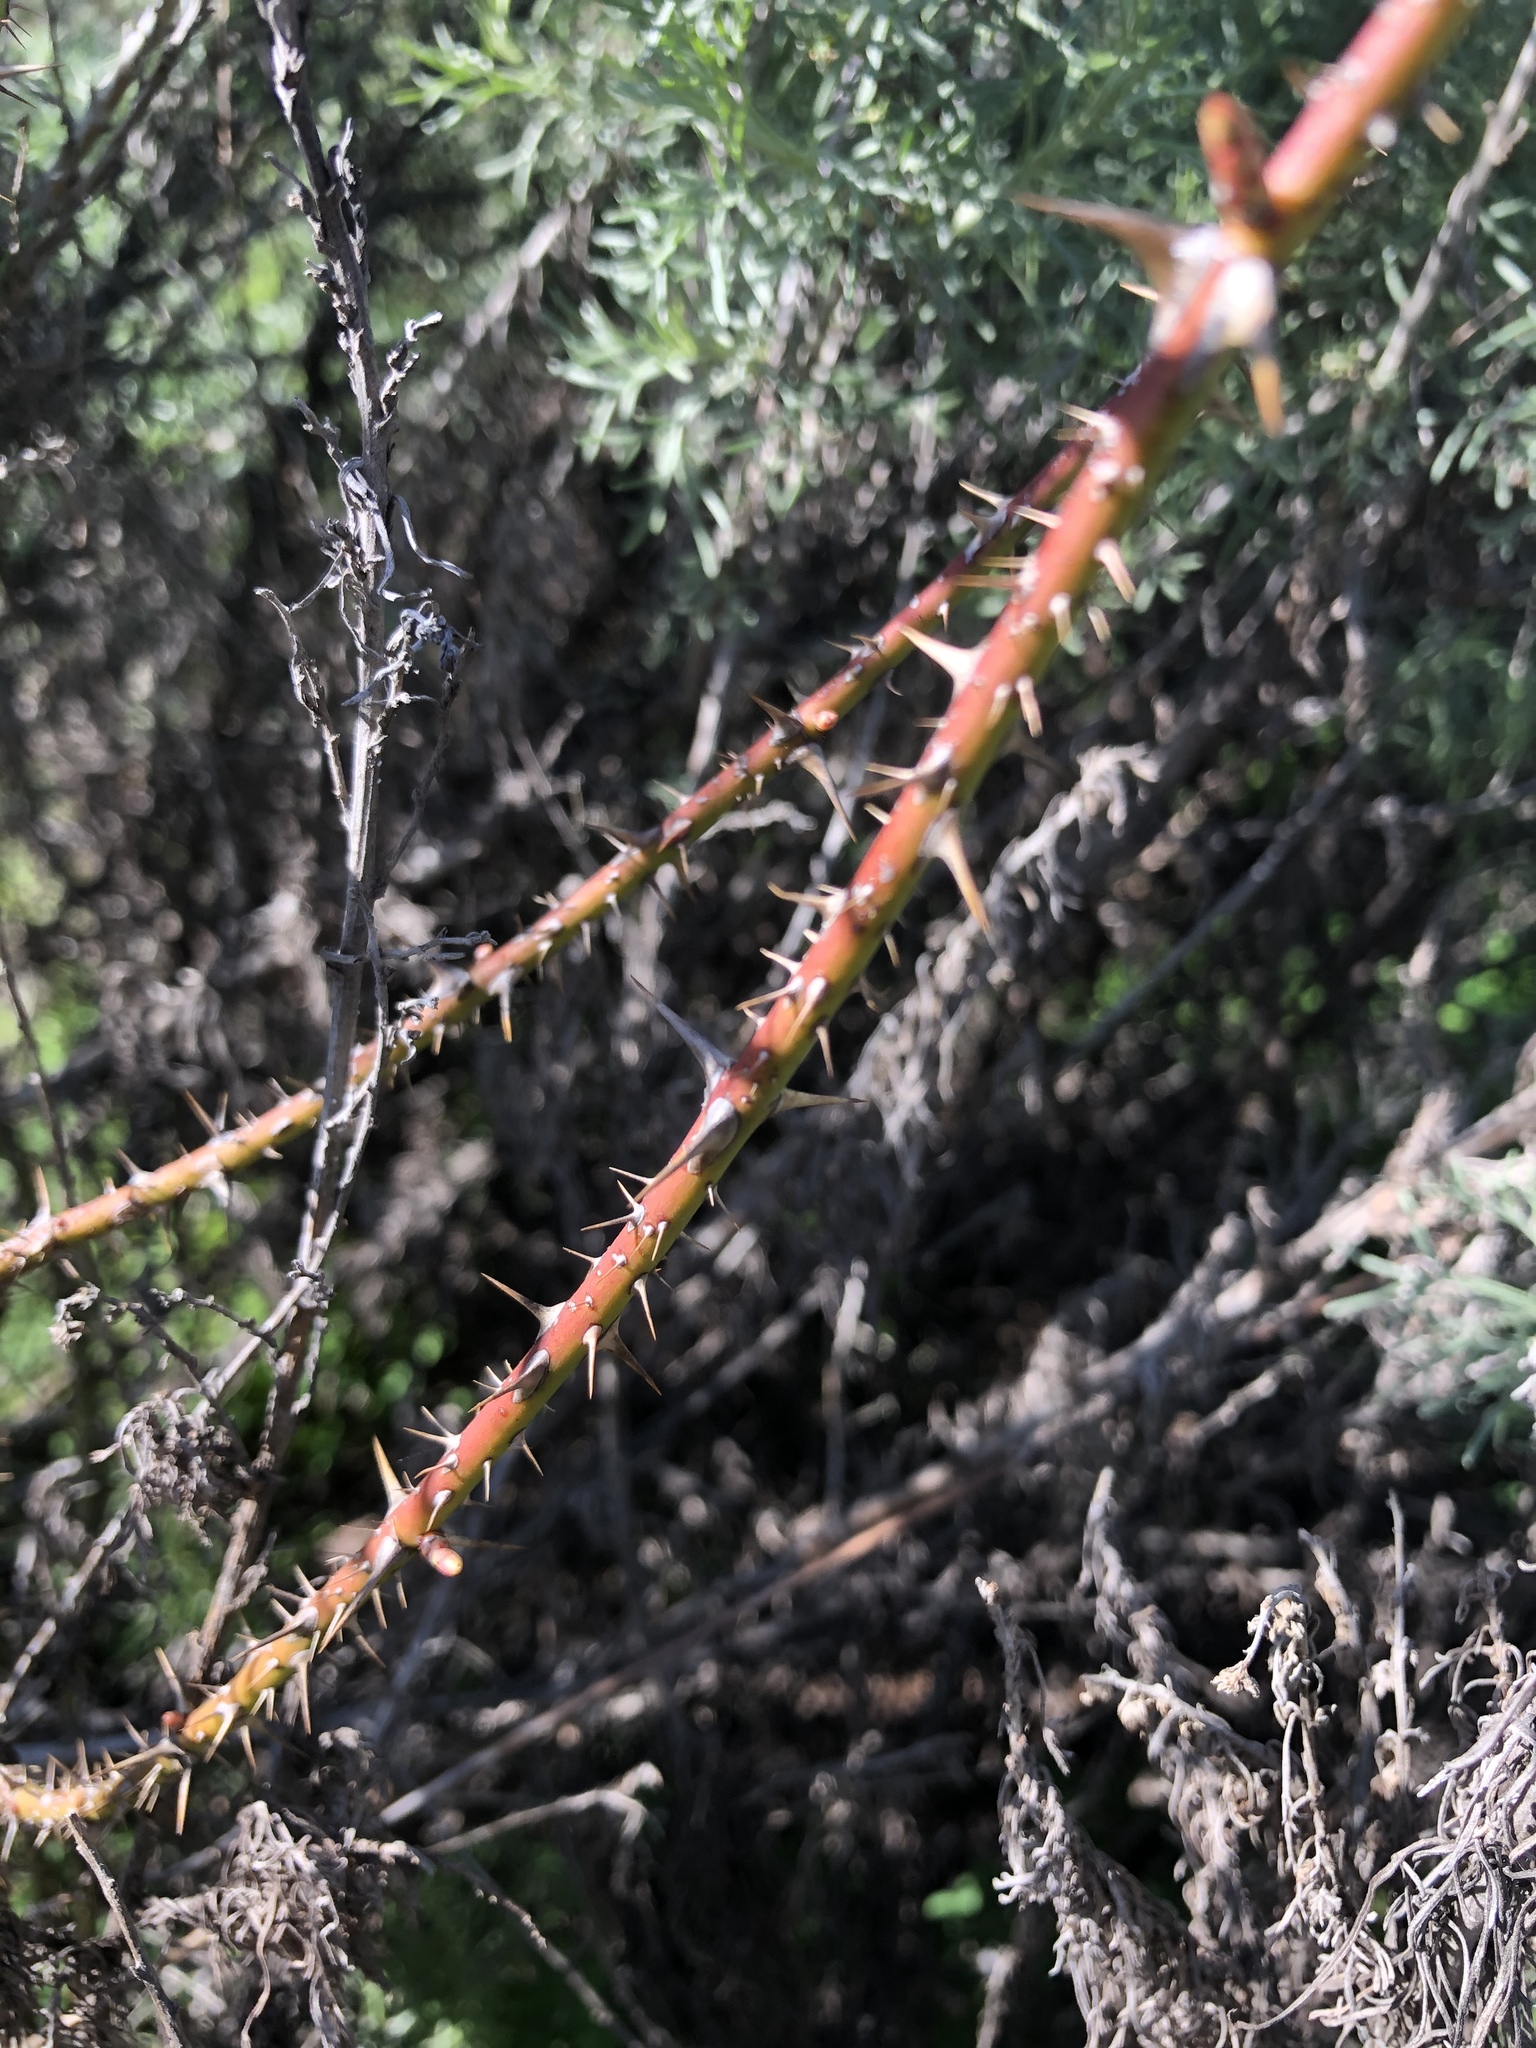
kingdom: Plantae
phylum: Tracheophyta
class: Magnoliopsida
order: Rosales
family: Rosaceae
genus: Rosa
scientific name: Rosa californica
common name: California rose
